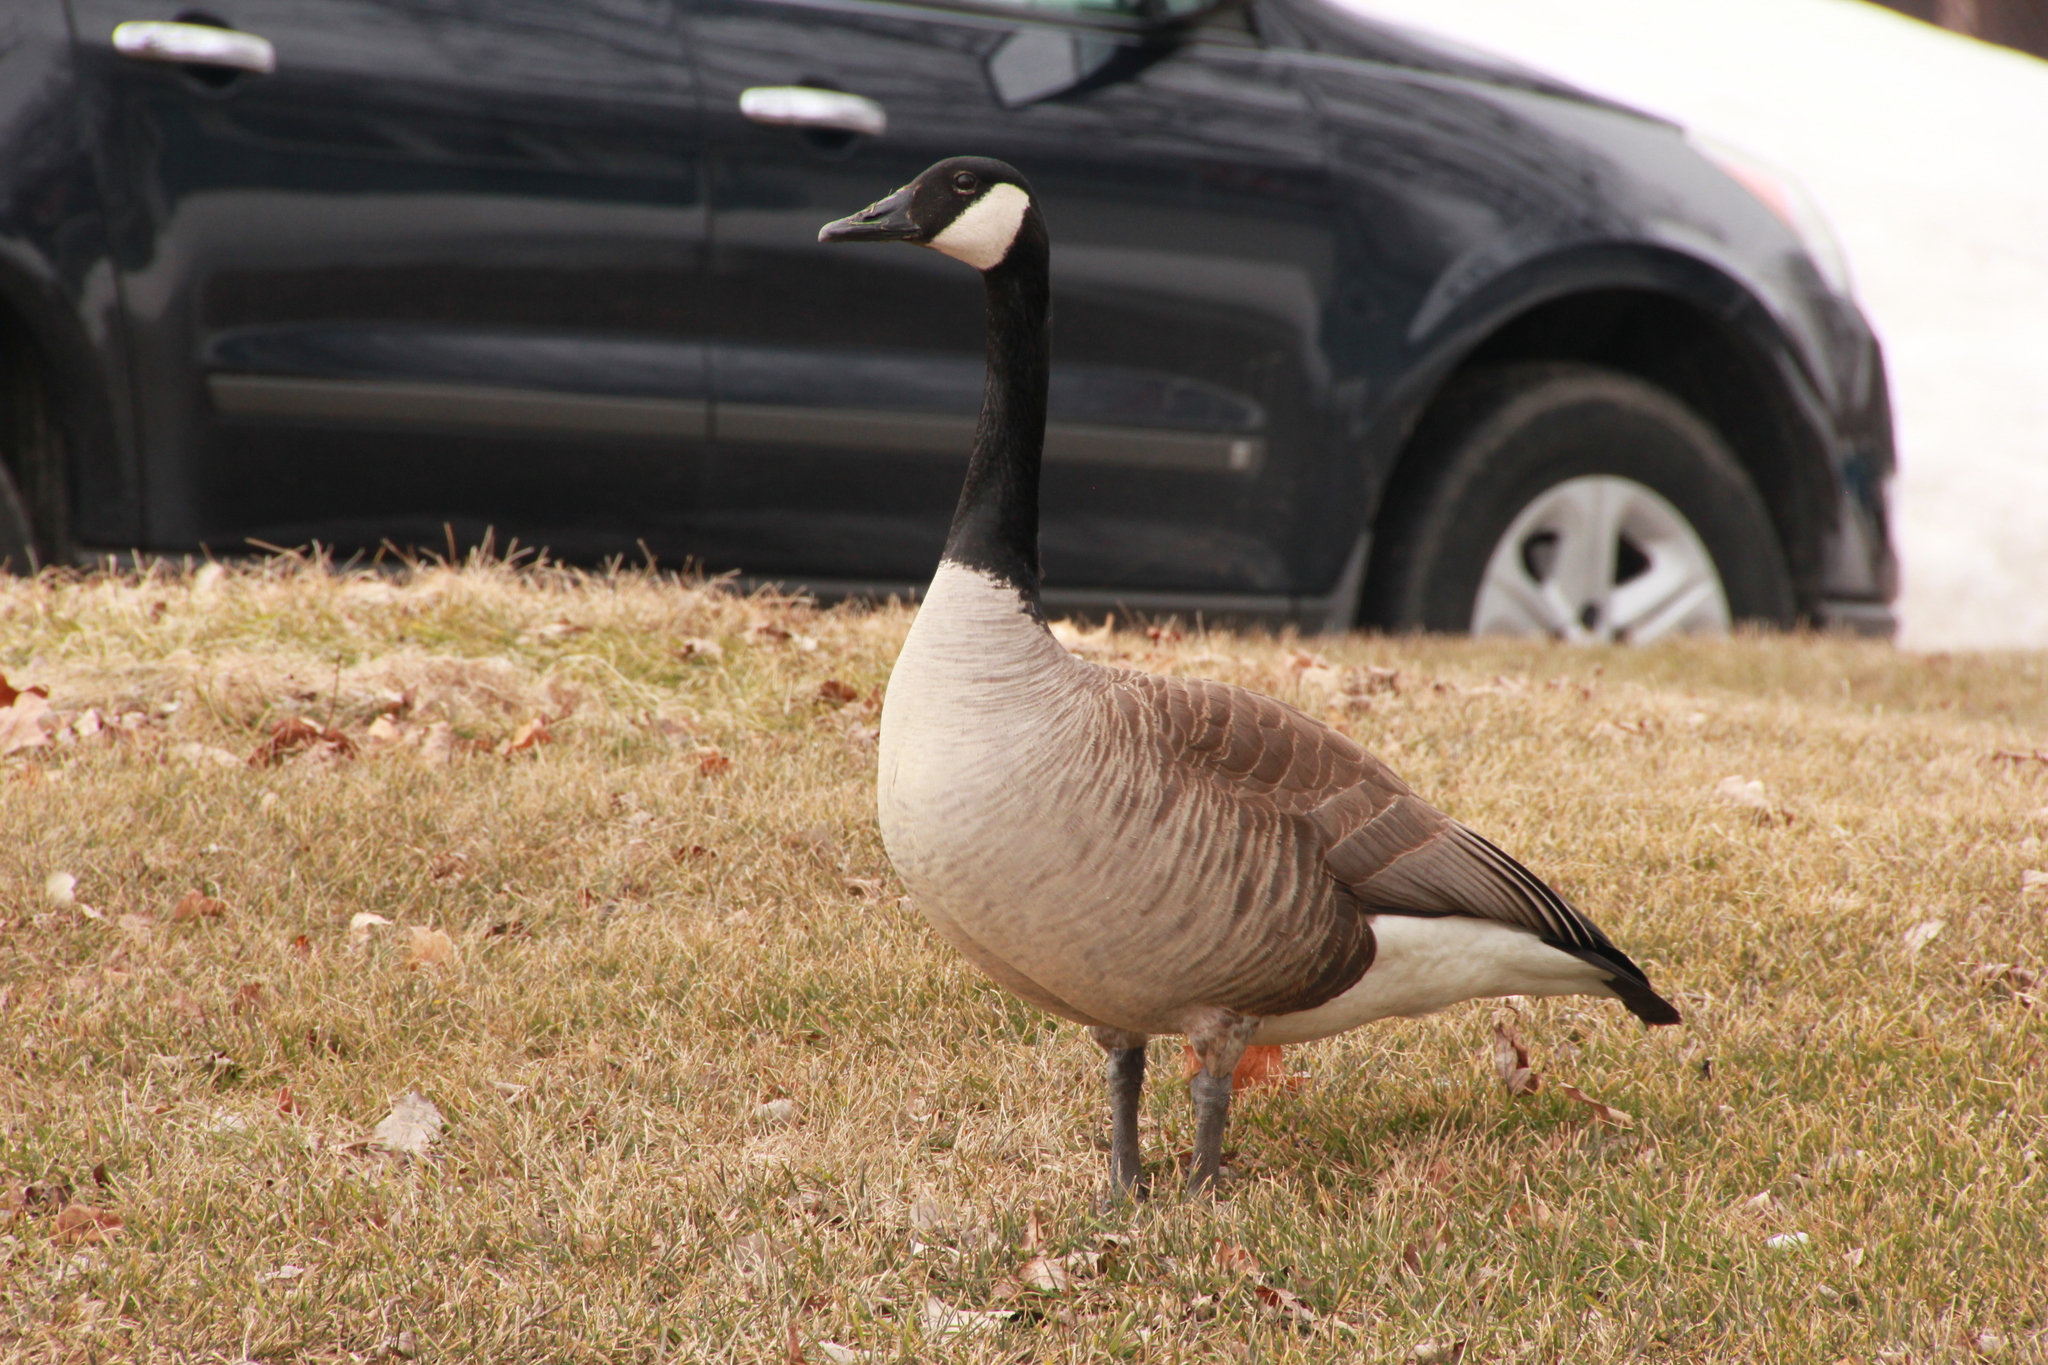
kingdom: Animalia
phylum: Chordata
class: Aves
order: Anseriformes
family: Anatidae
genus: Branta
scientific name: Branta canadensis
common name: Canada goose
